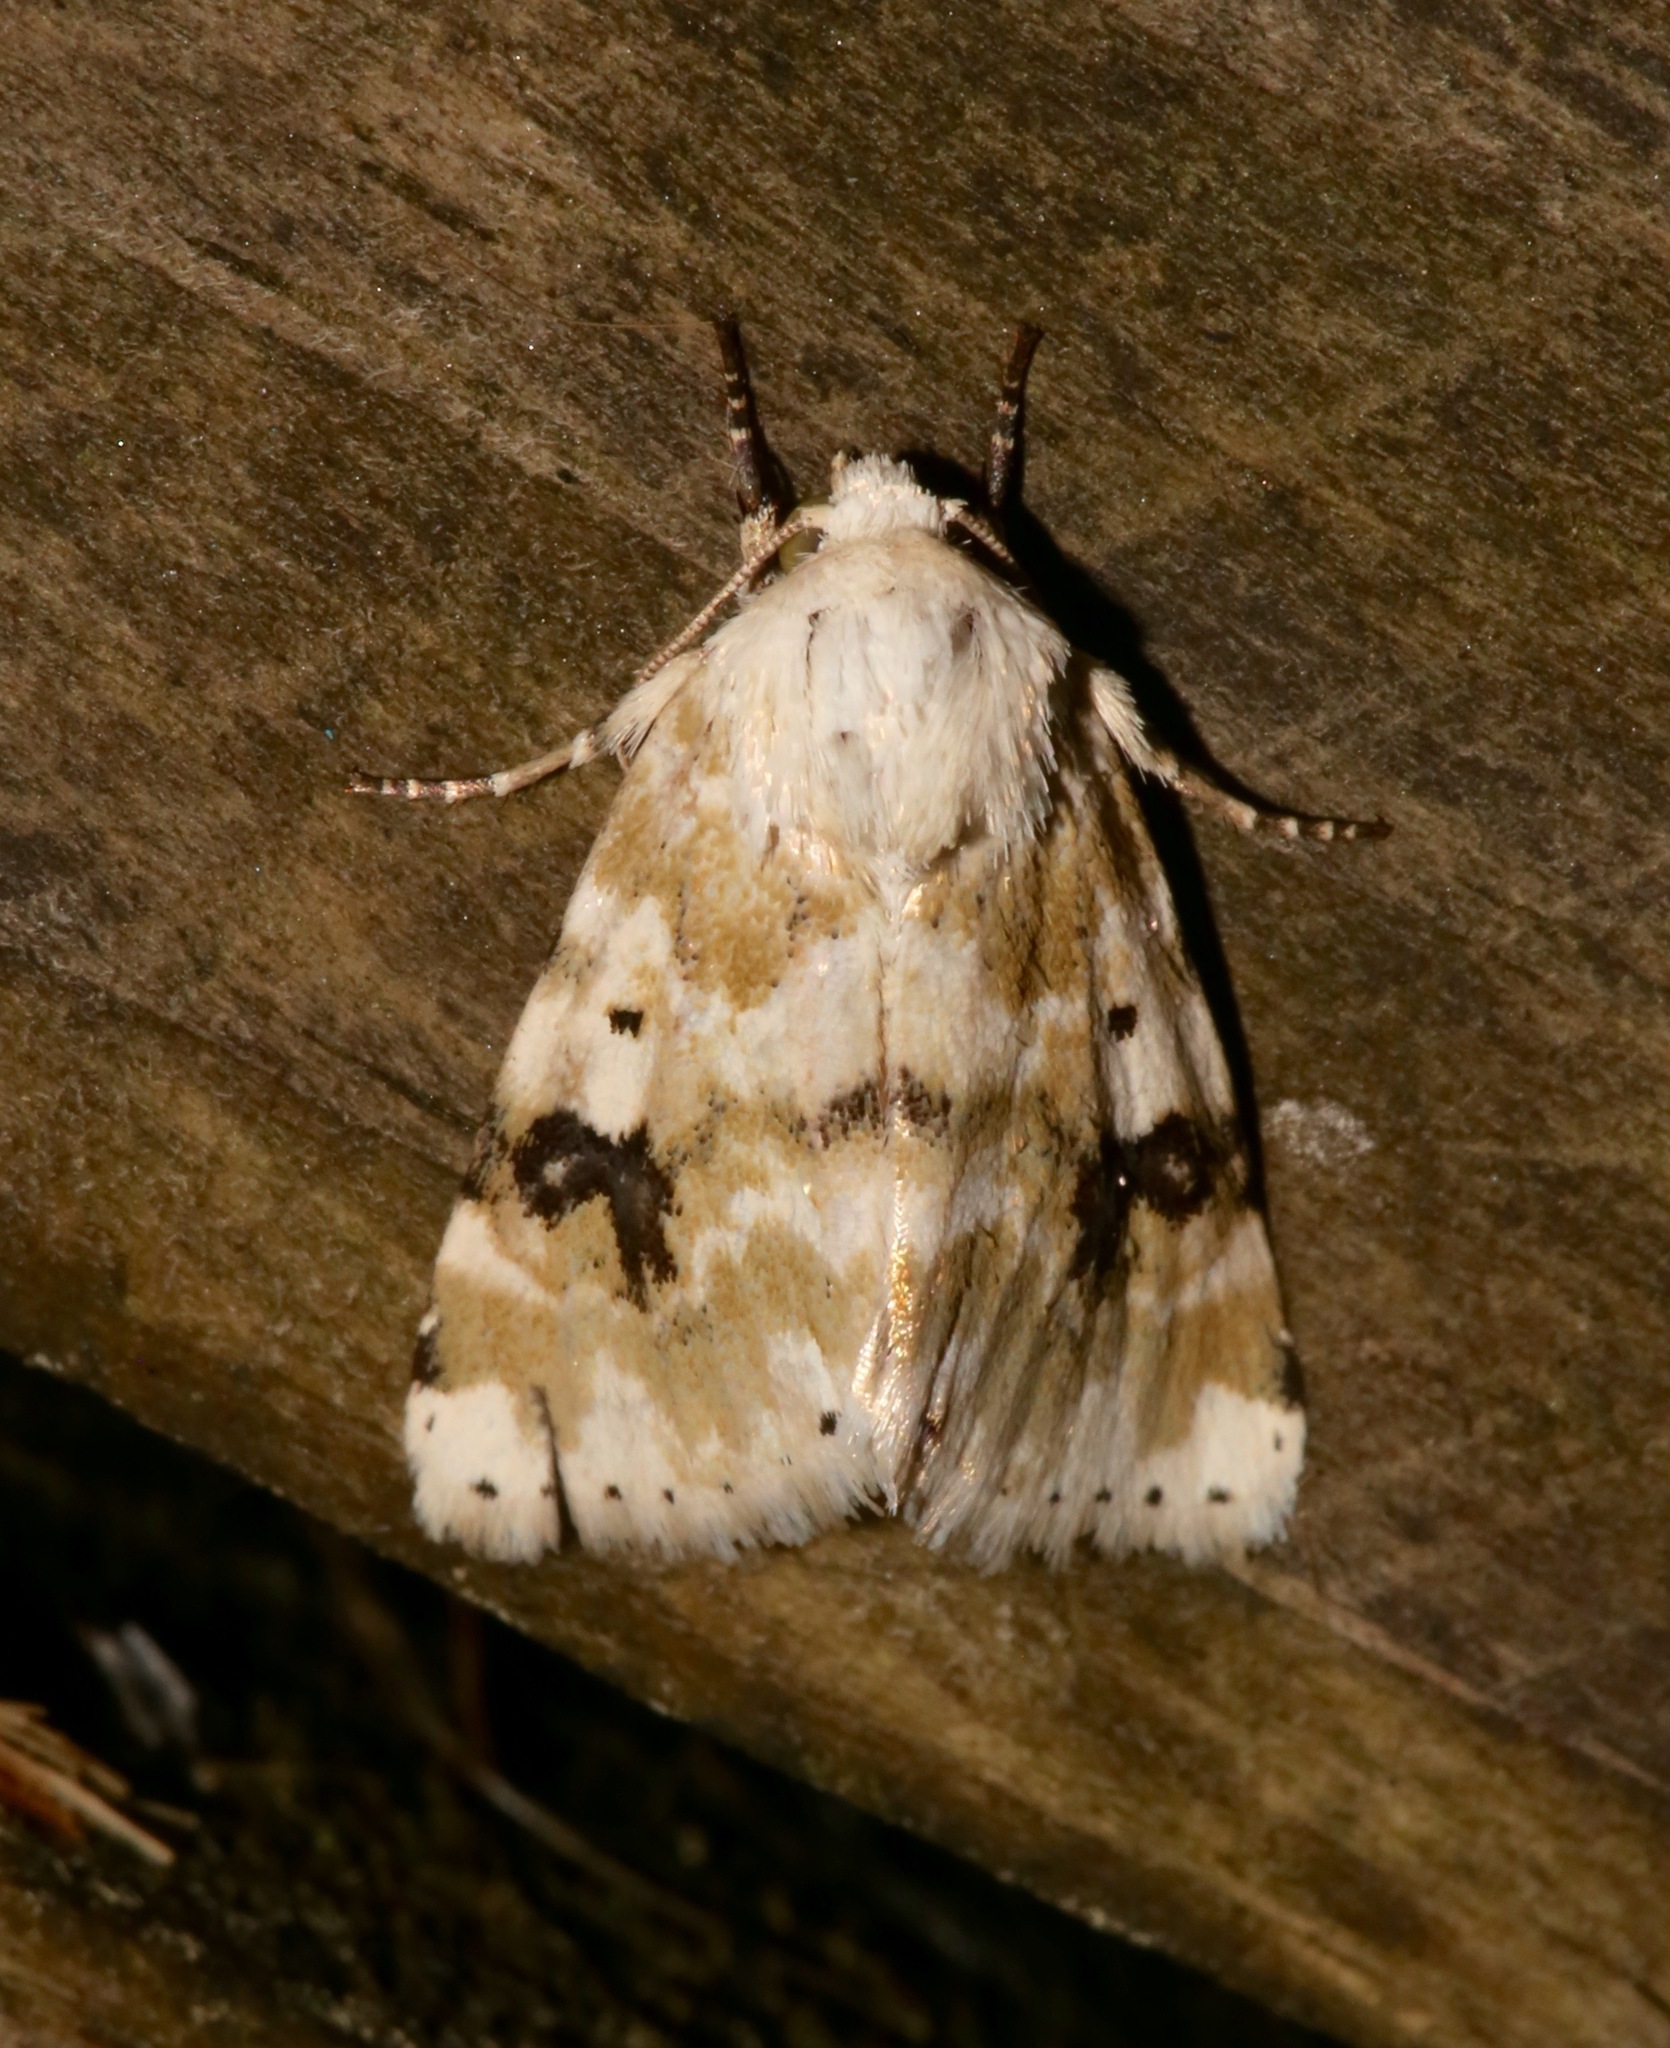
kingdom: Animalia
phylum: Arthropoda
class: Insecta
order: Lepidoptera
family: Noctuidae
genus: Schinia
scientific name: Schinia nundina
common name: Goldenrod flower moth
